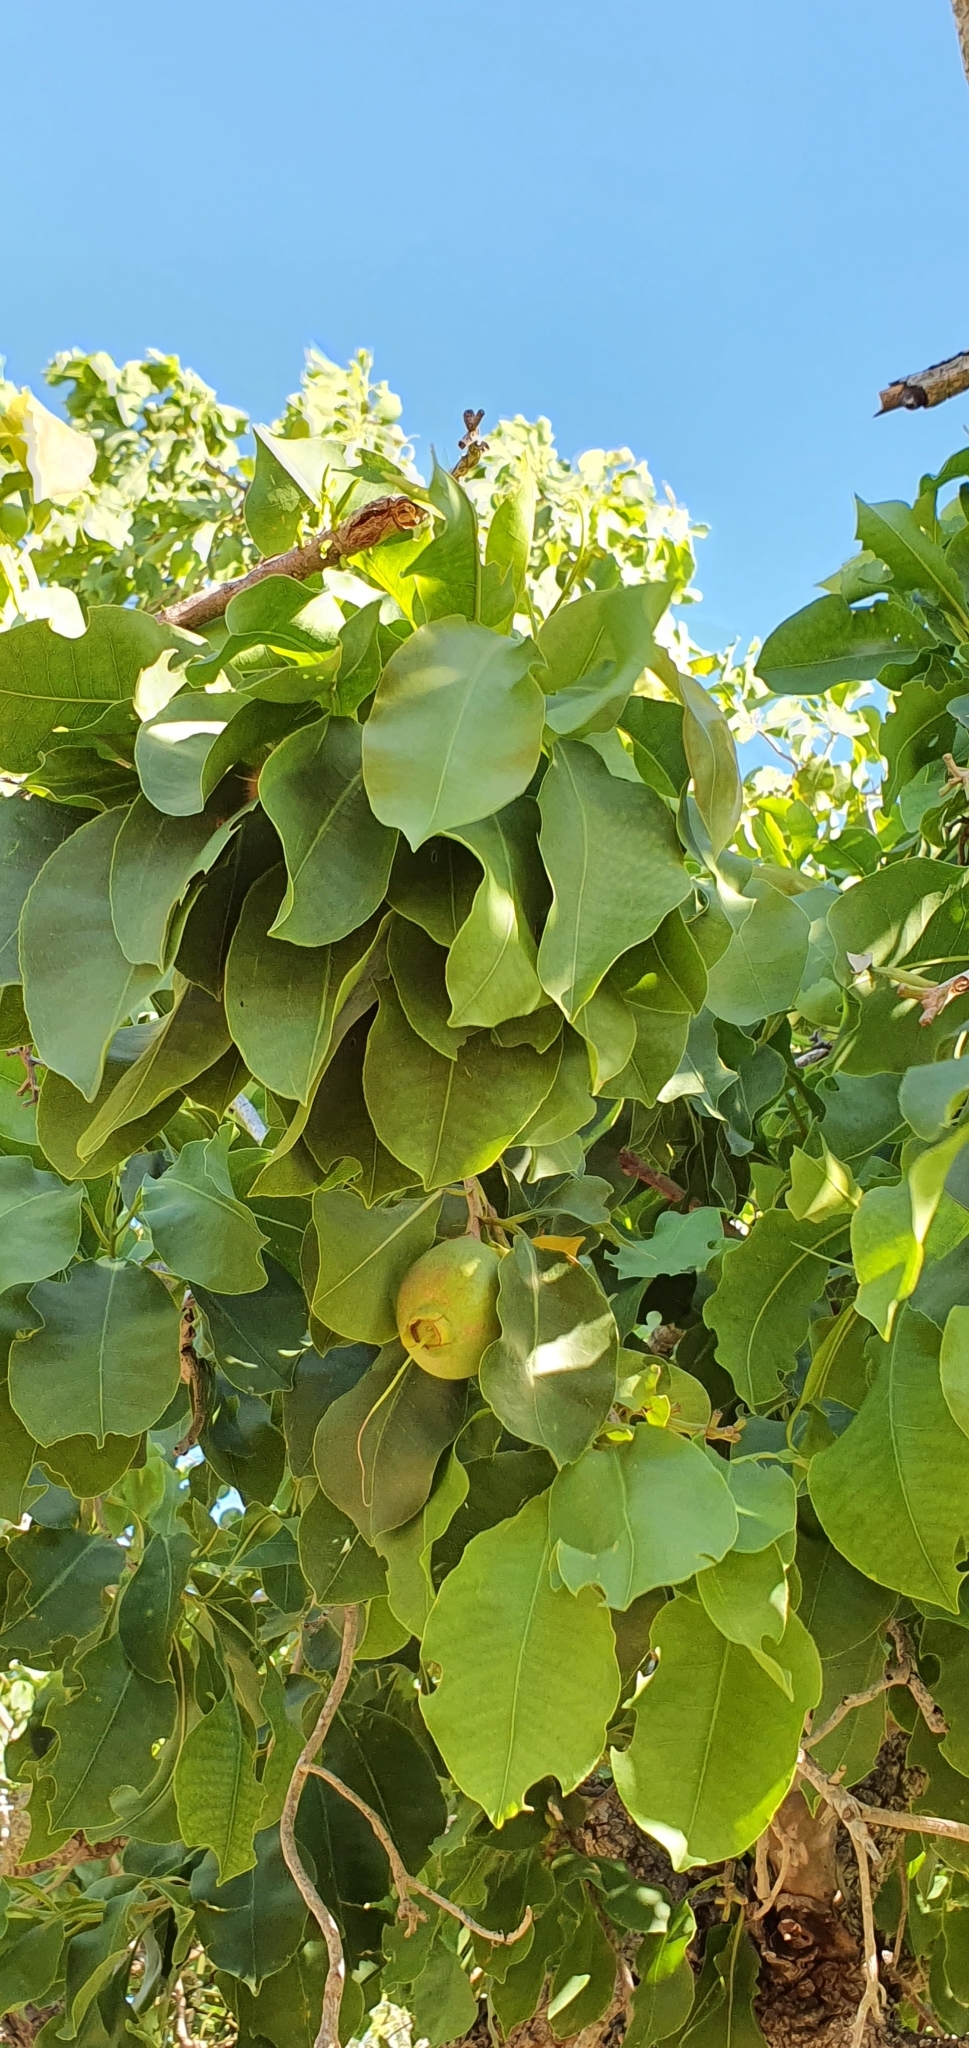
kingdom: Plantae
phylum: Tracheophyta
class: Magnoliopsida
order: Ericales
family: Lecythidaceae
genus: Planchonia
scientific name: Planchonia careya
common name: Cockatoo-apple
